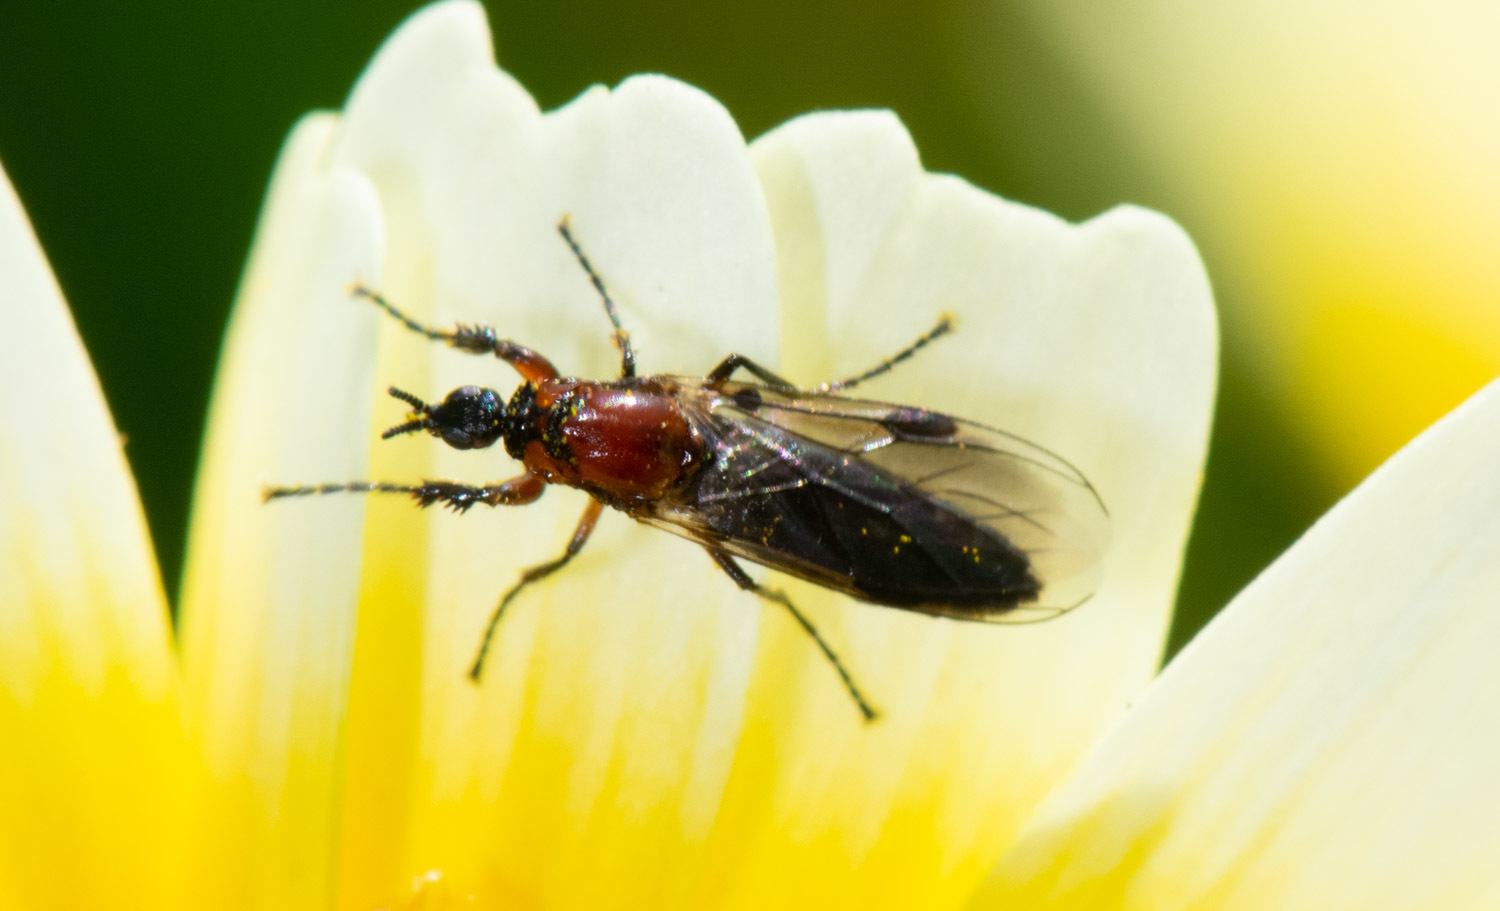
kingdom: Animalia
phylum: Arthropoda
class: Insecta
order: Diptera
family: Bibionidae
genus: Dilophus
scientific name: Dilophus strigilatus
